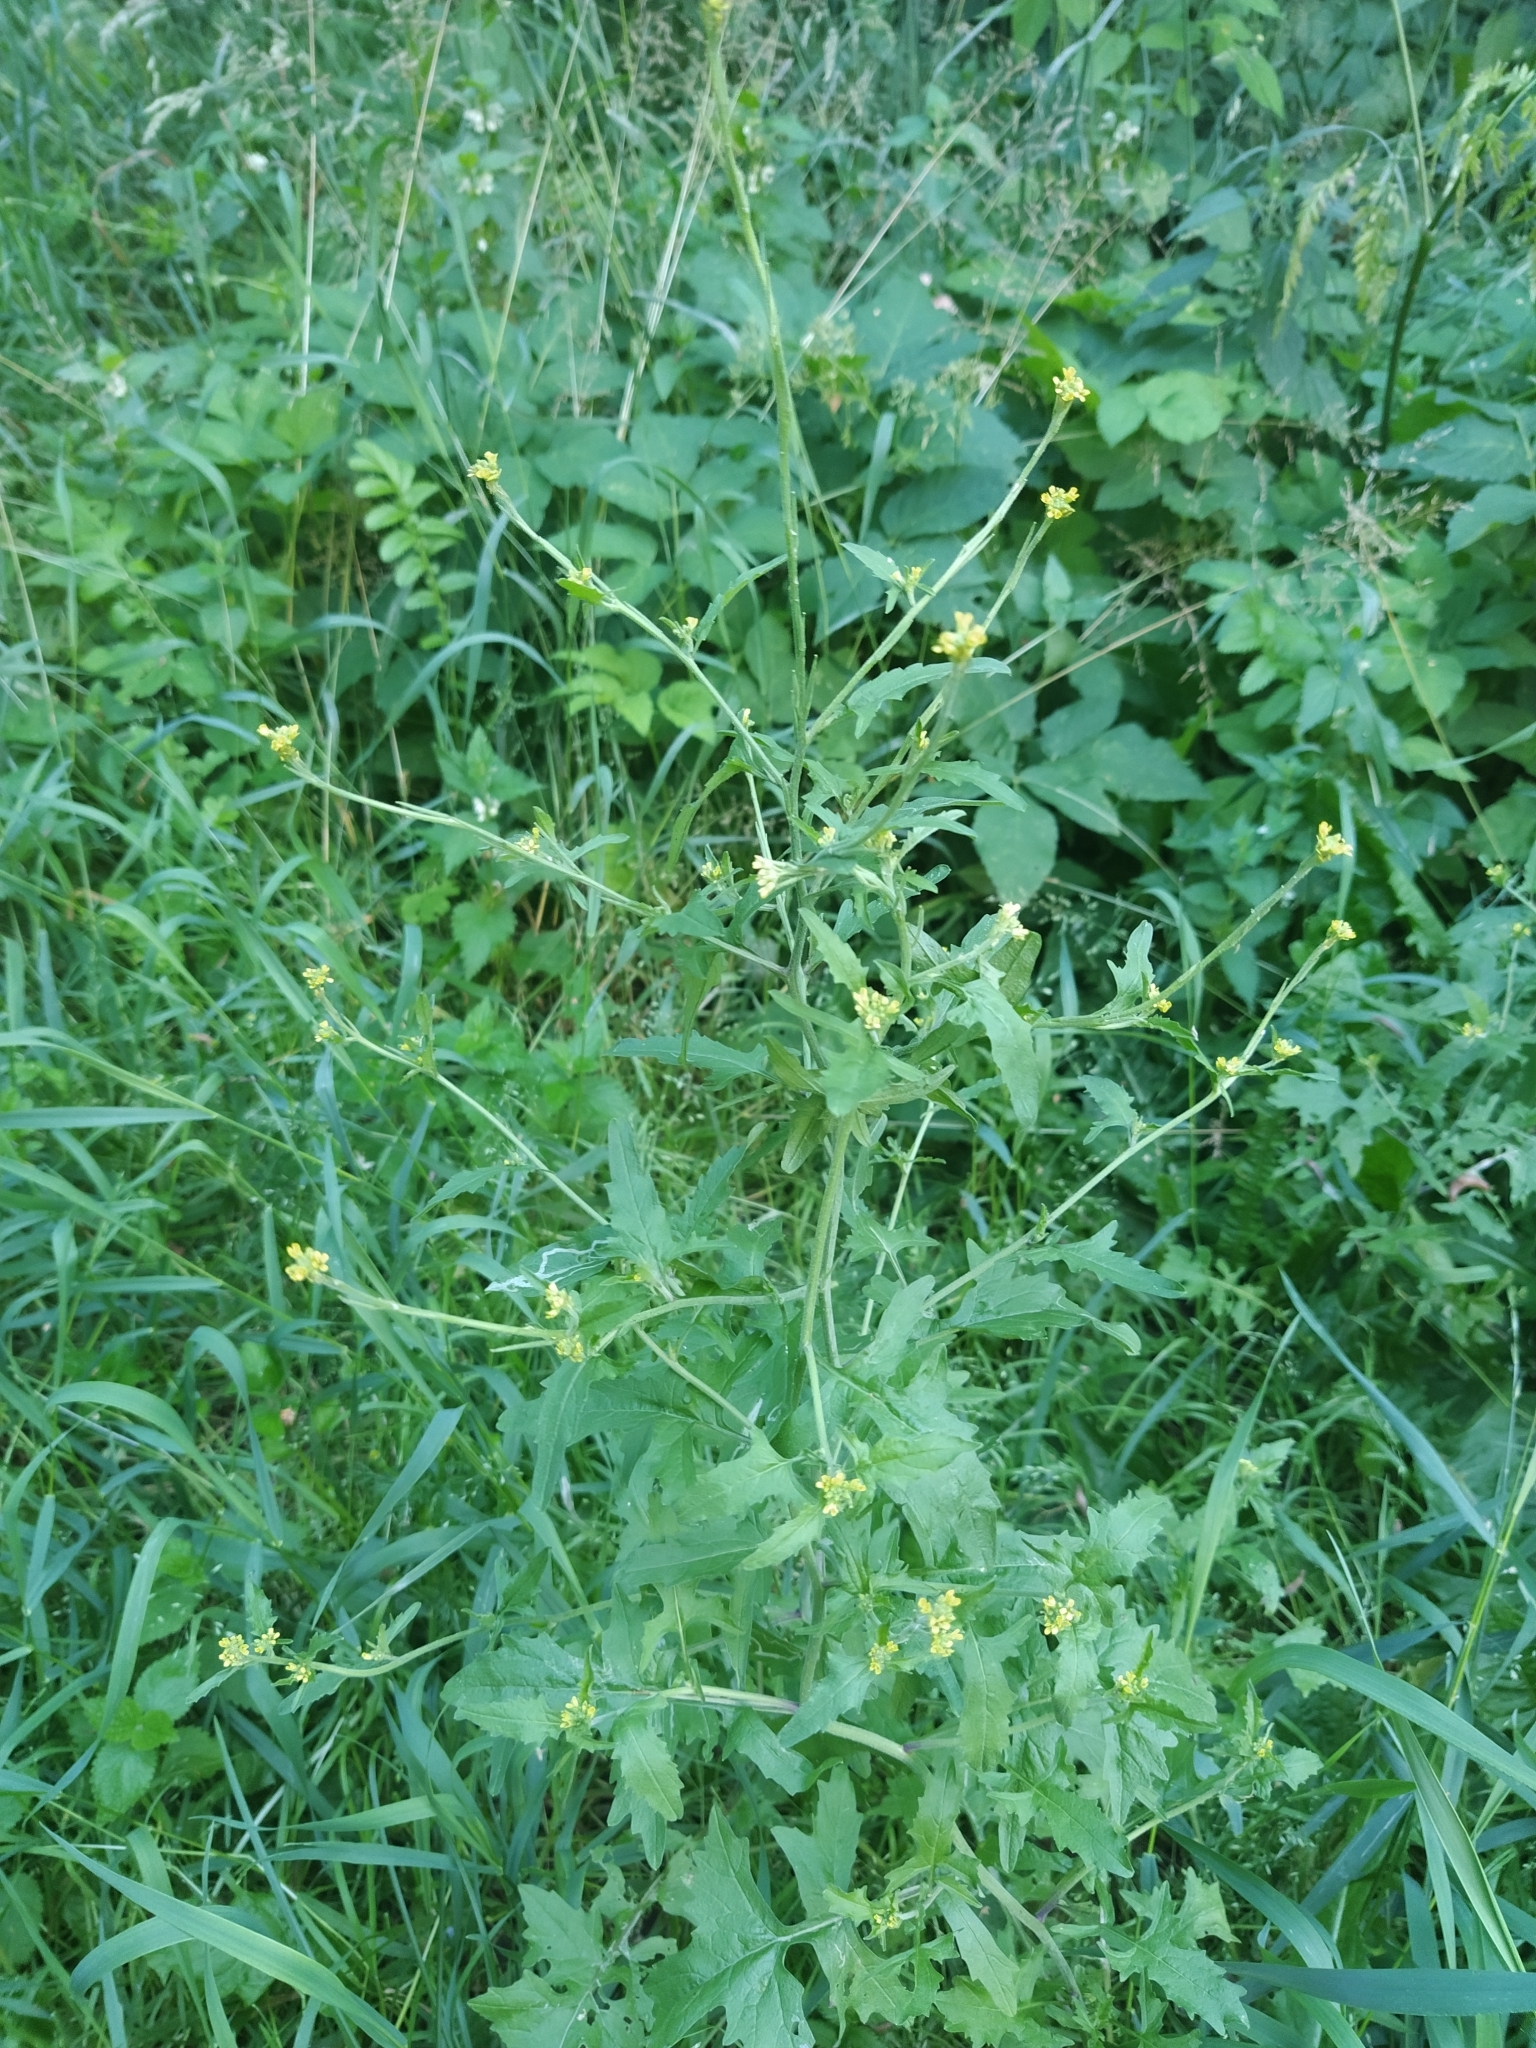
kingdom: Plantae
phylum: Tracheophyta
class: Magnoliopsida
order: Brassicales
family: Brassicaceae
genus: Sisymbrium
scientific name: Sisymbrium officinale
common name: Hedge mustard
